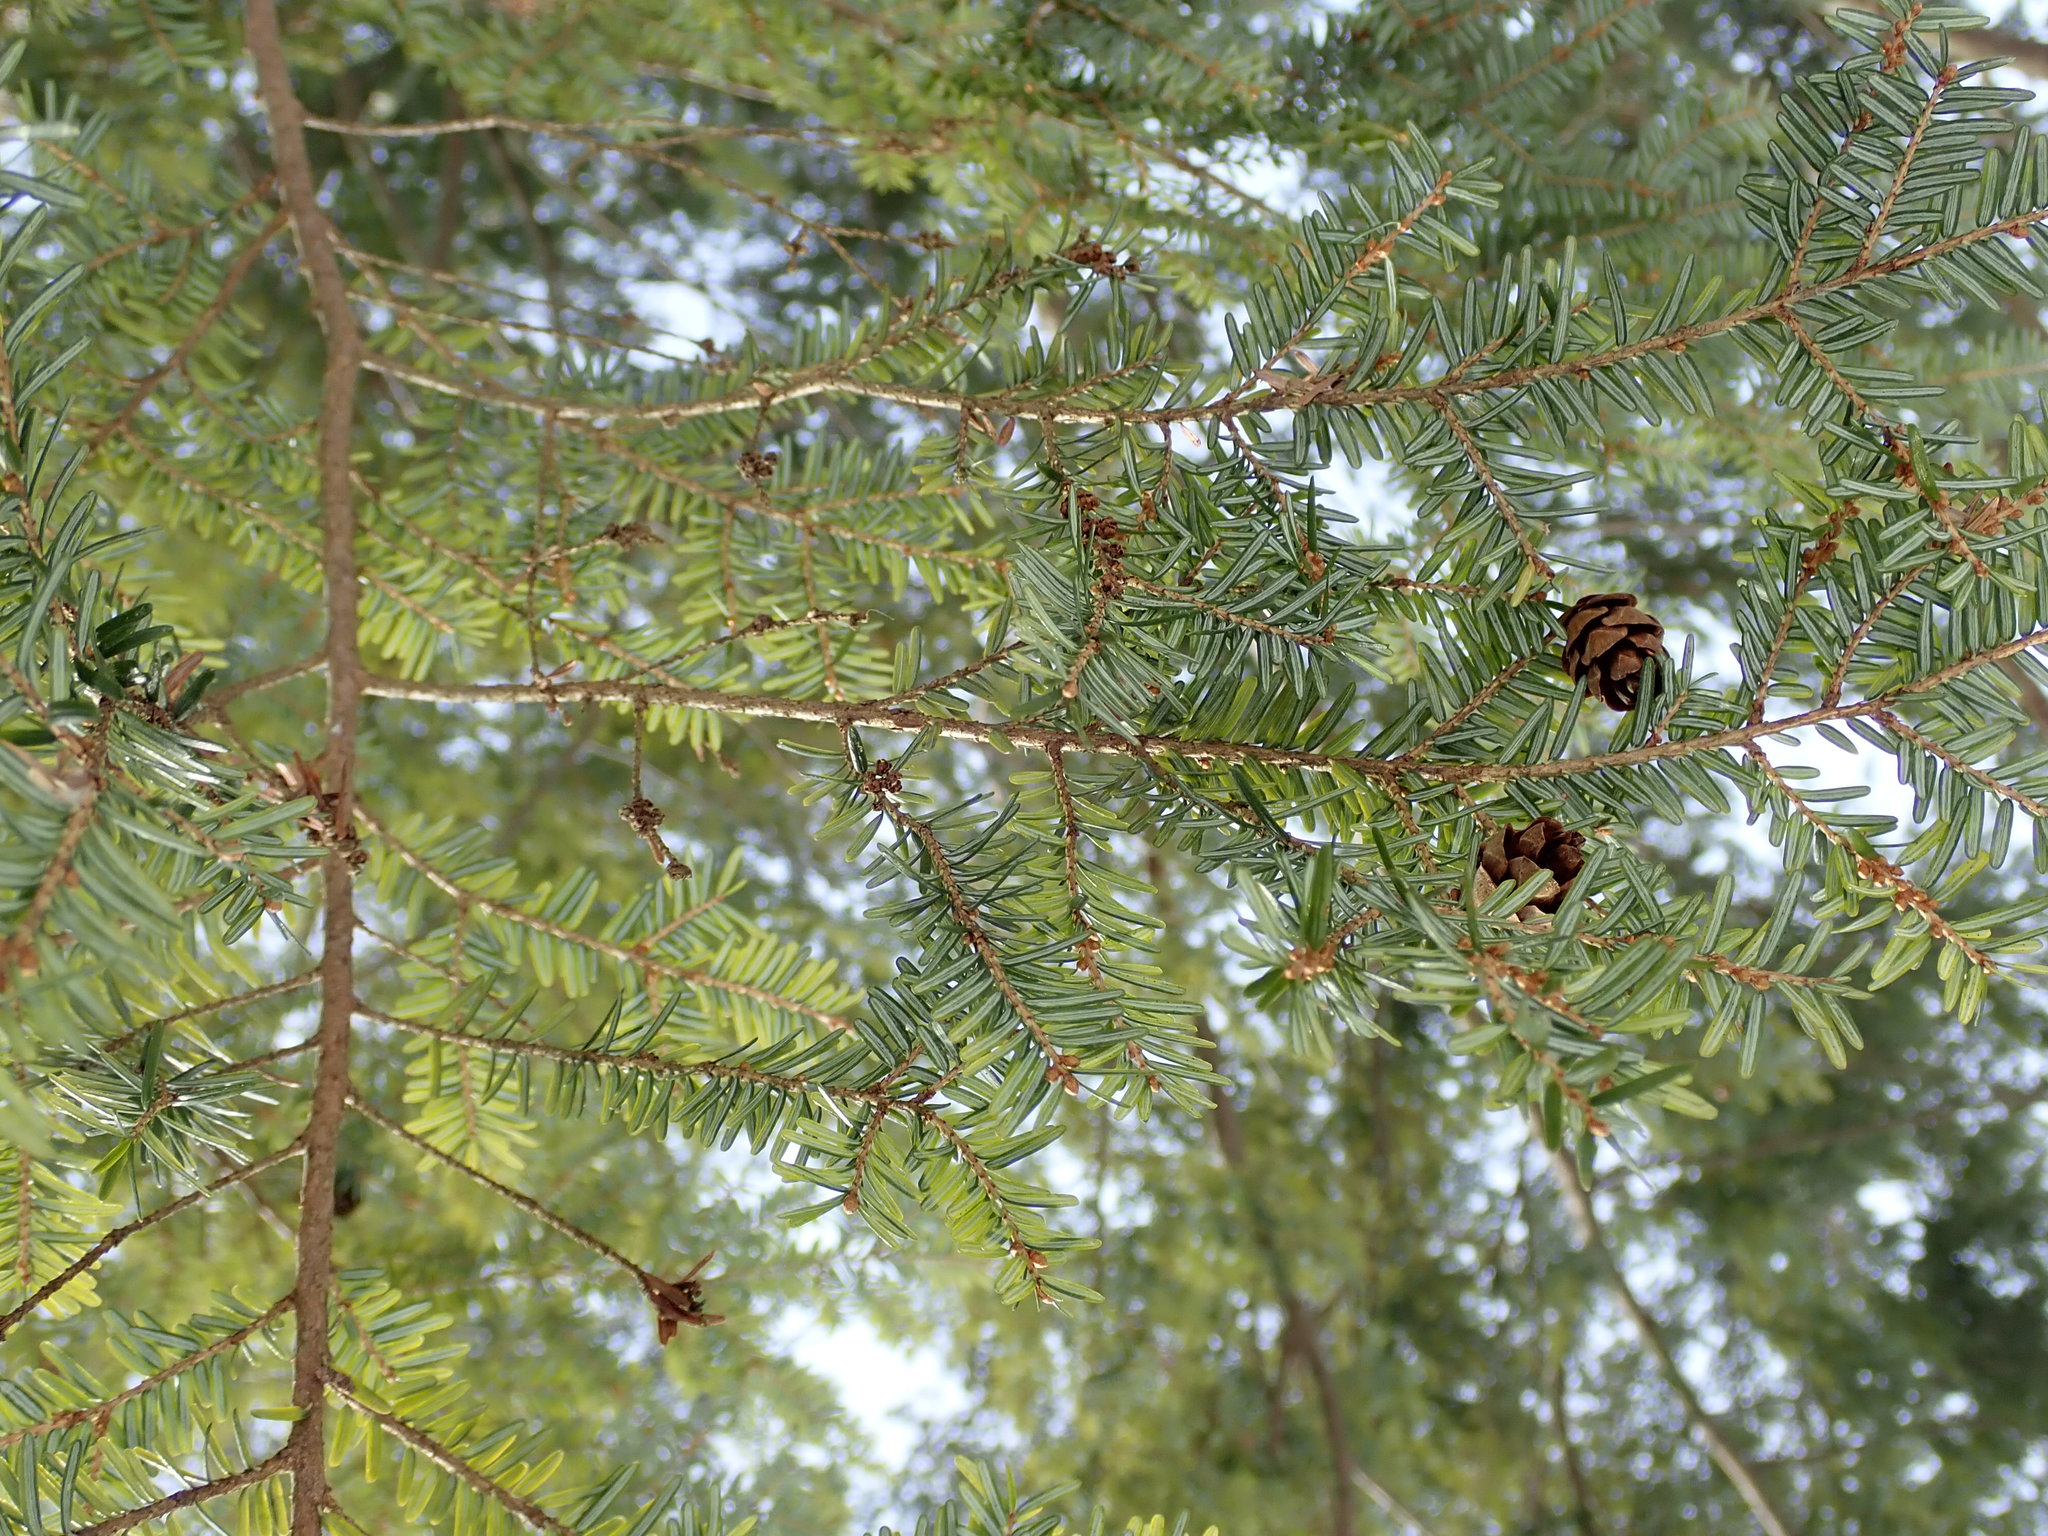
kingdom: Plantae
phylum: Tracheophyta
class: Pinopsida
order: Pinales
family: Pinaceae
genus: Tsuga
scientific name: Tsuga canadensis
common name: Eastern hemlock
